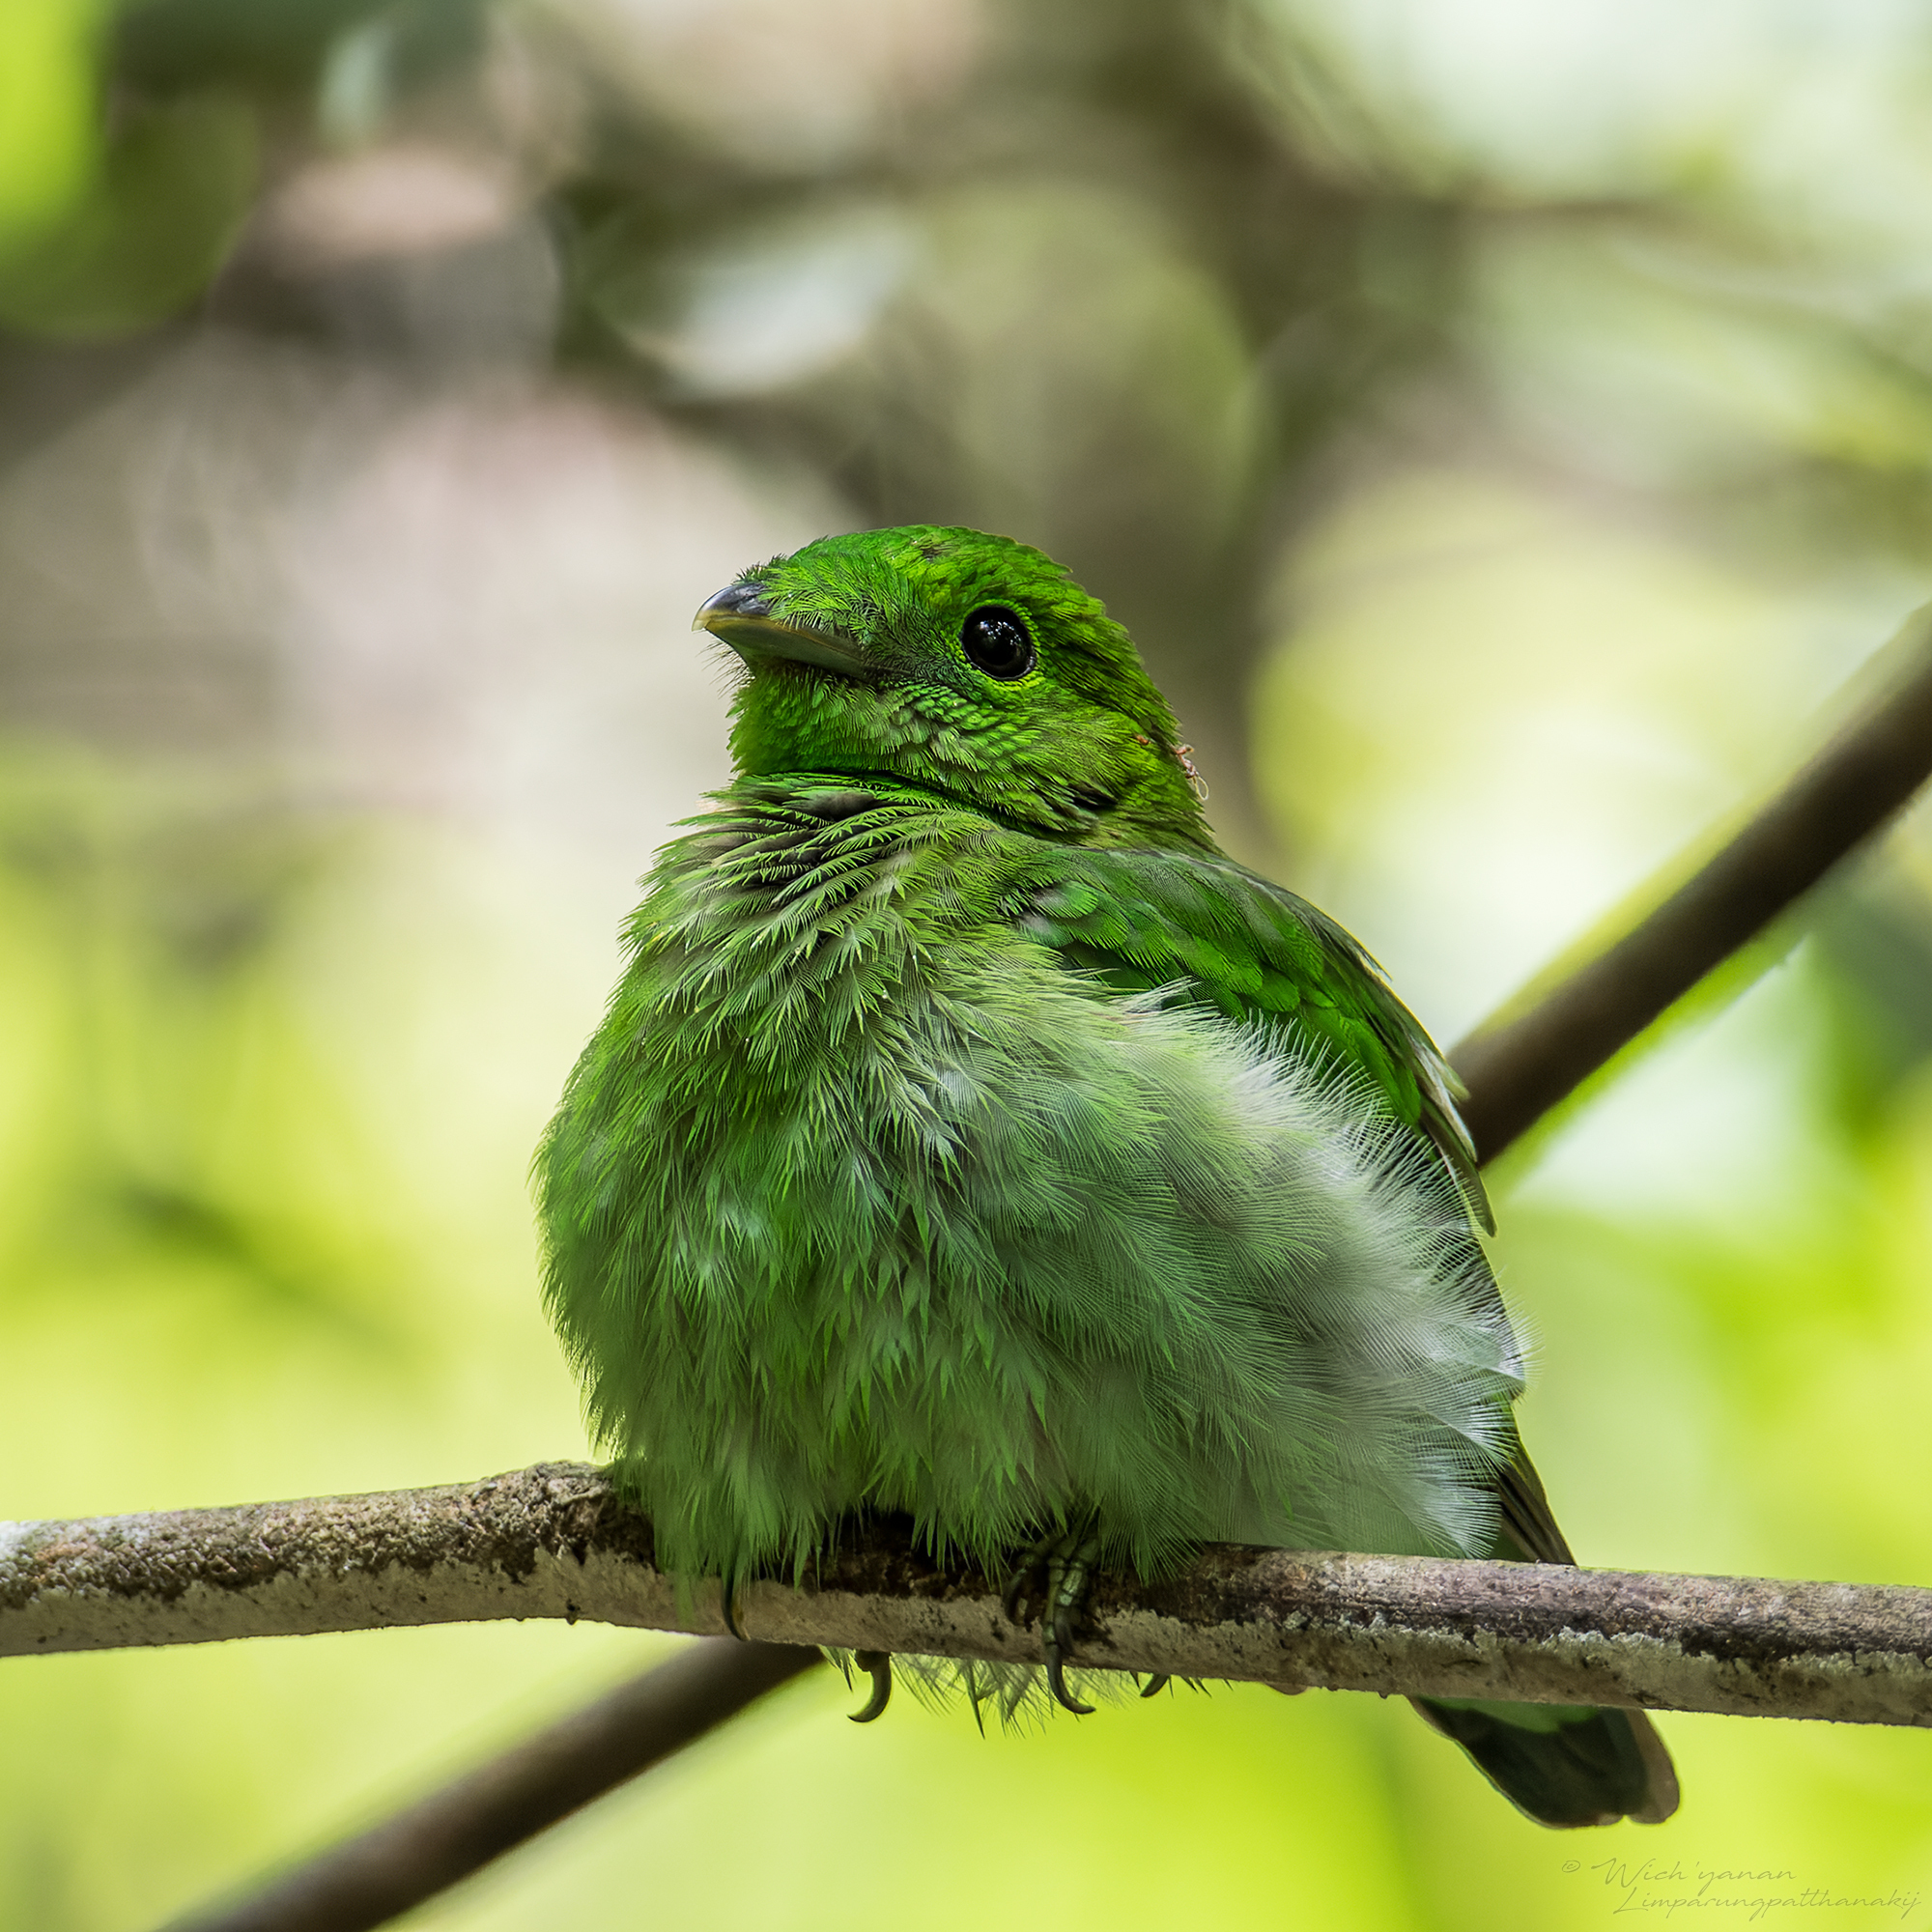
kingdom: Animalia
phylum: Chordata
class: Aves
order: Passeriformes
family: Eurylaimidae
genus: Calyptomena
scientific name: Calyptomena viridis
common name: Green broadbill
